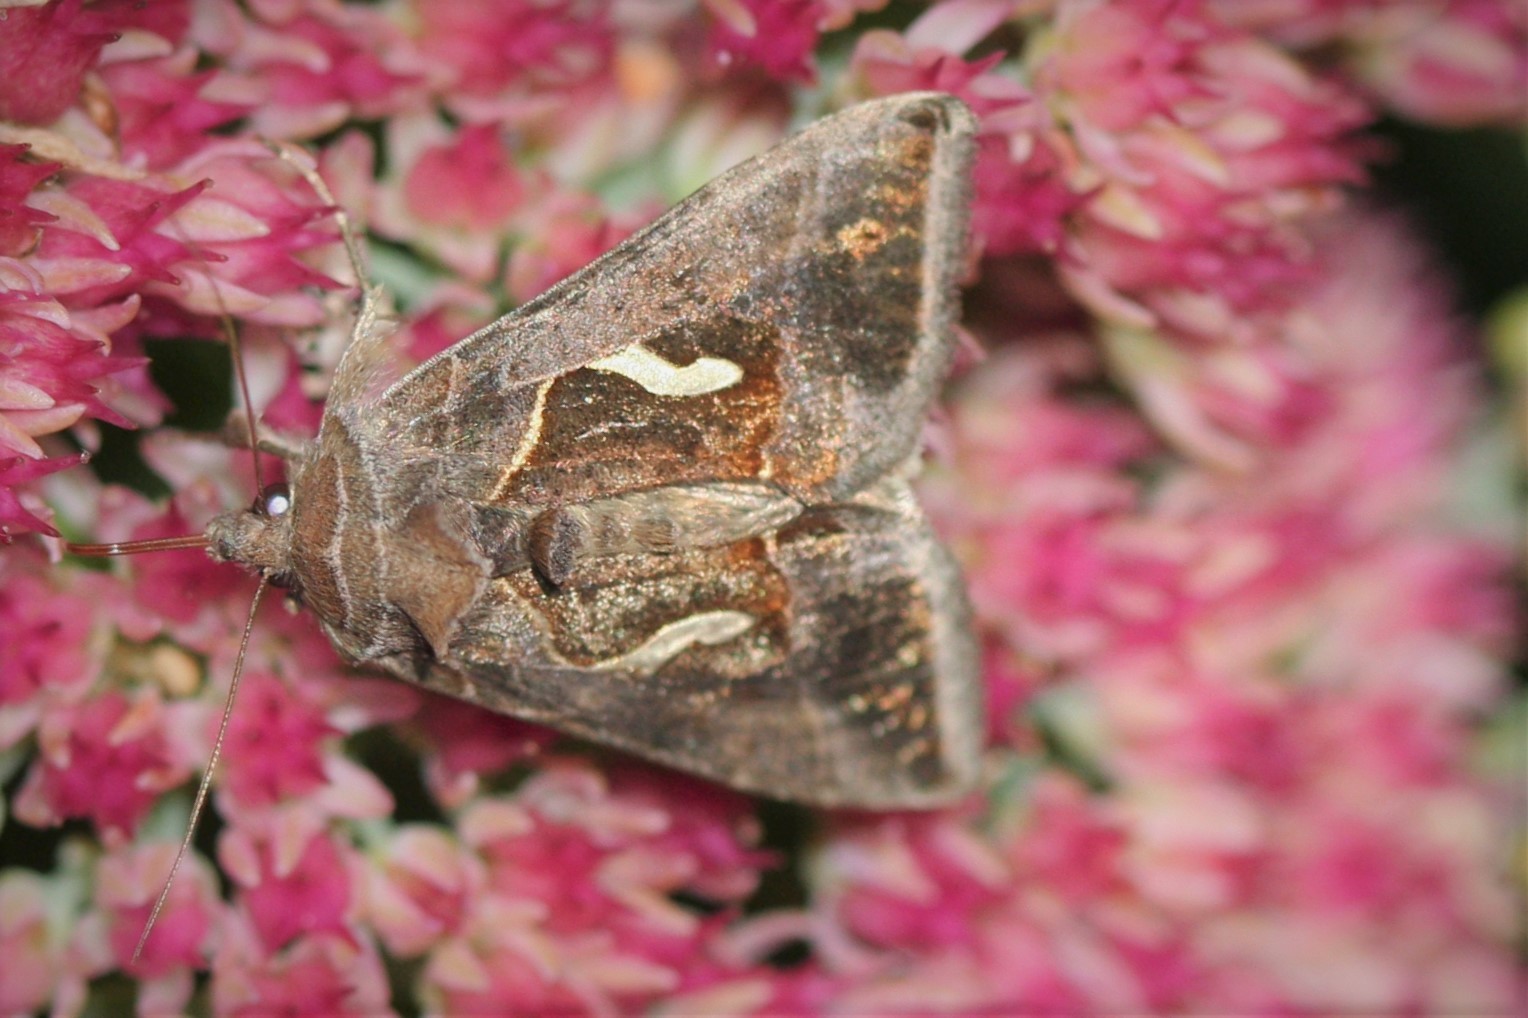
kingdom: Animalia
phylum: Arthropoda
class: Insecta
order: Lepidoptera
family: Noctuidae
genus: Macdunnoughia
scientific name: Macdunnoughia confusa
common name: Dewick's plusia
